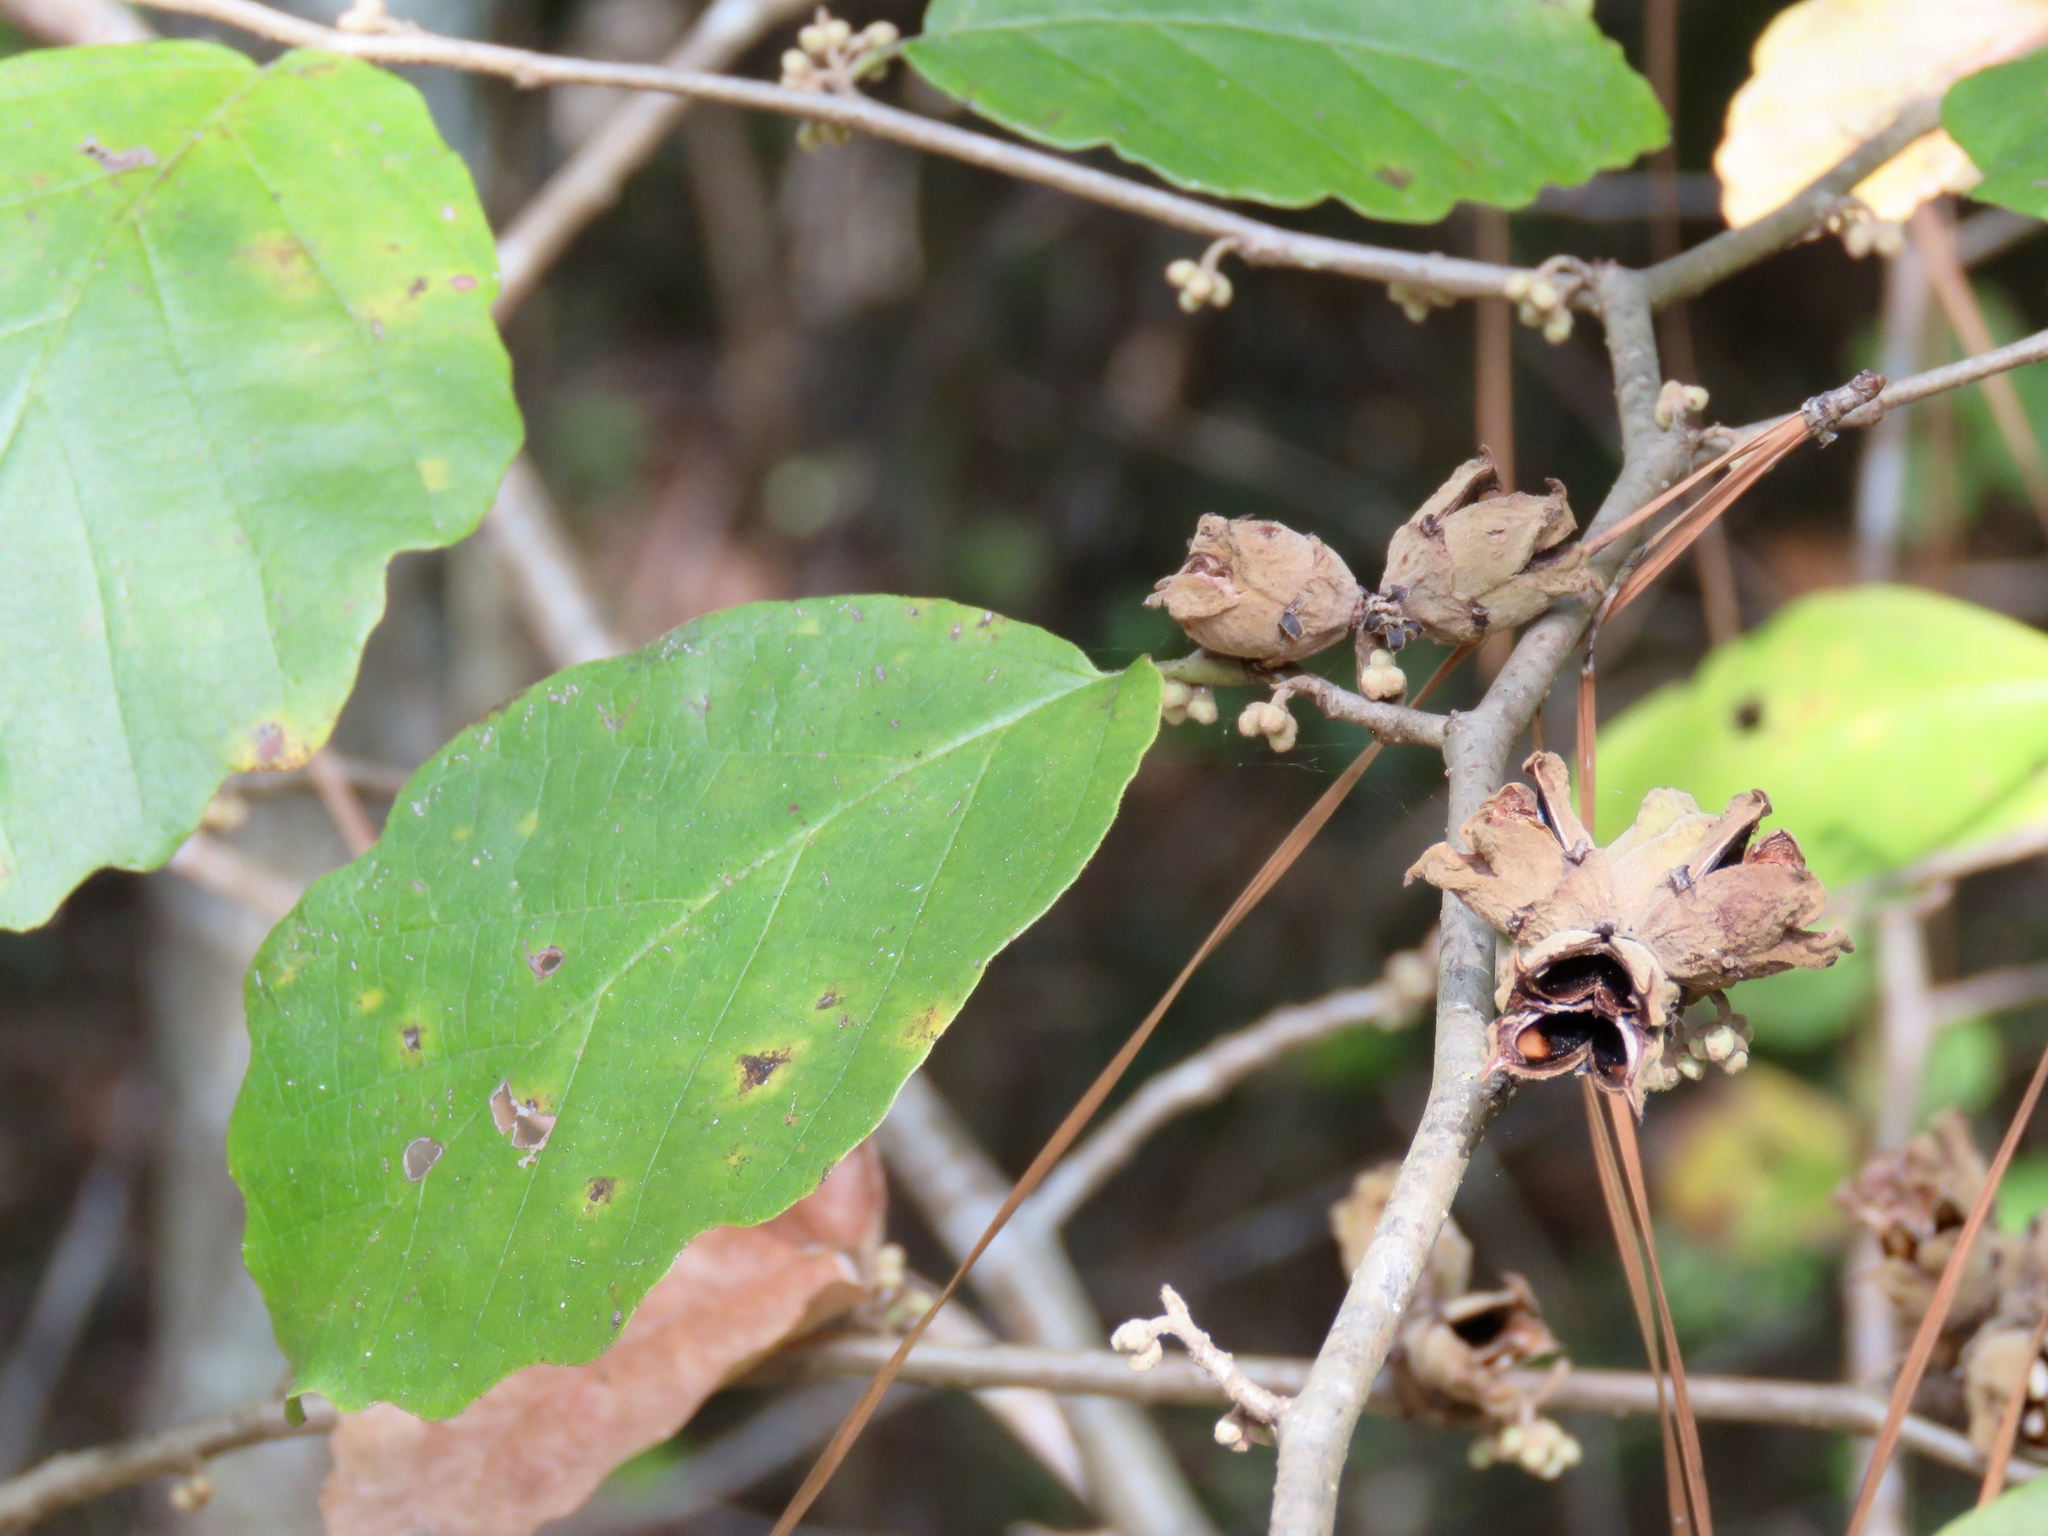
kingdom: Plantae
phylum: Tracheophyta
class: Magnoliopsida
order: Saxifragales
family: Hamamelidaceae
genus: Hamamelis
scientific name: Hamamelis virginiana
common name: Witch-hazel
